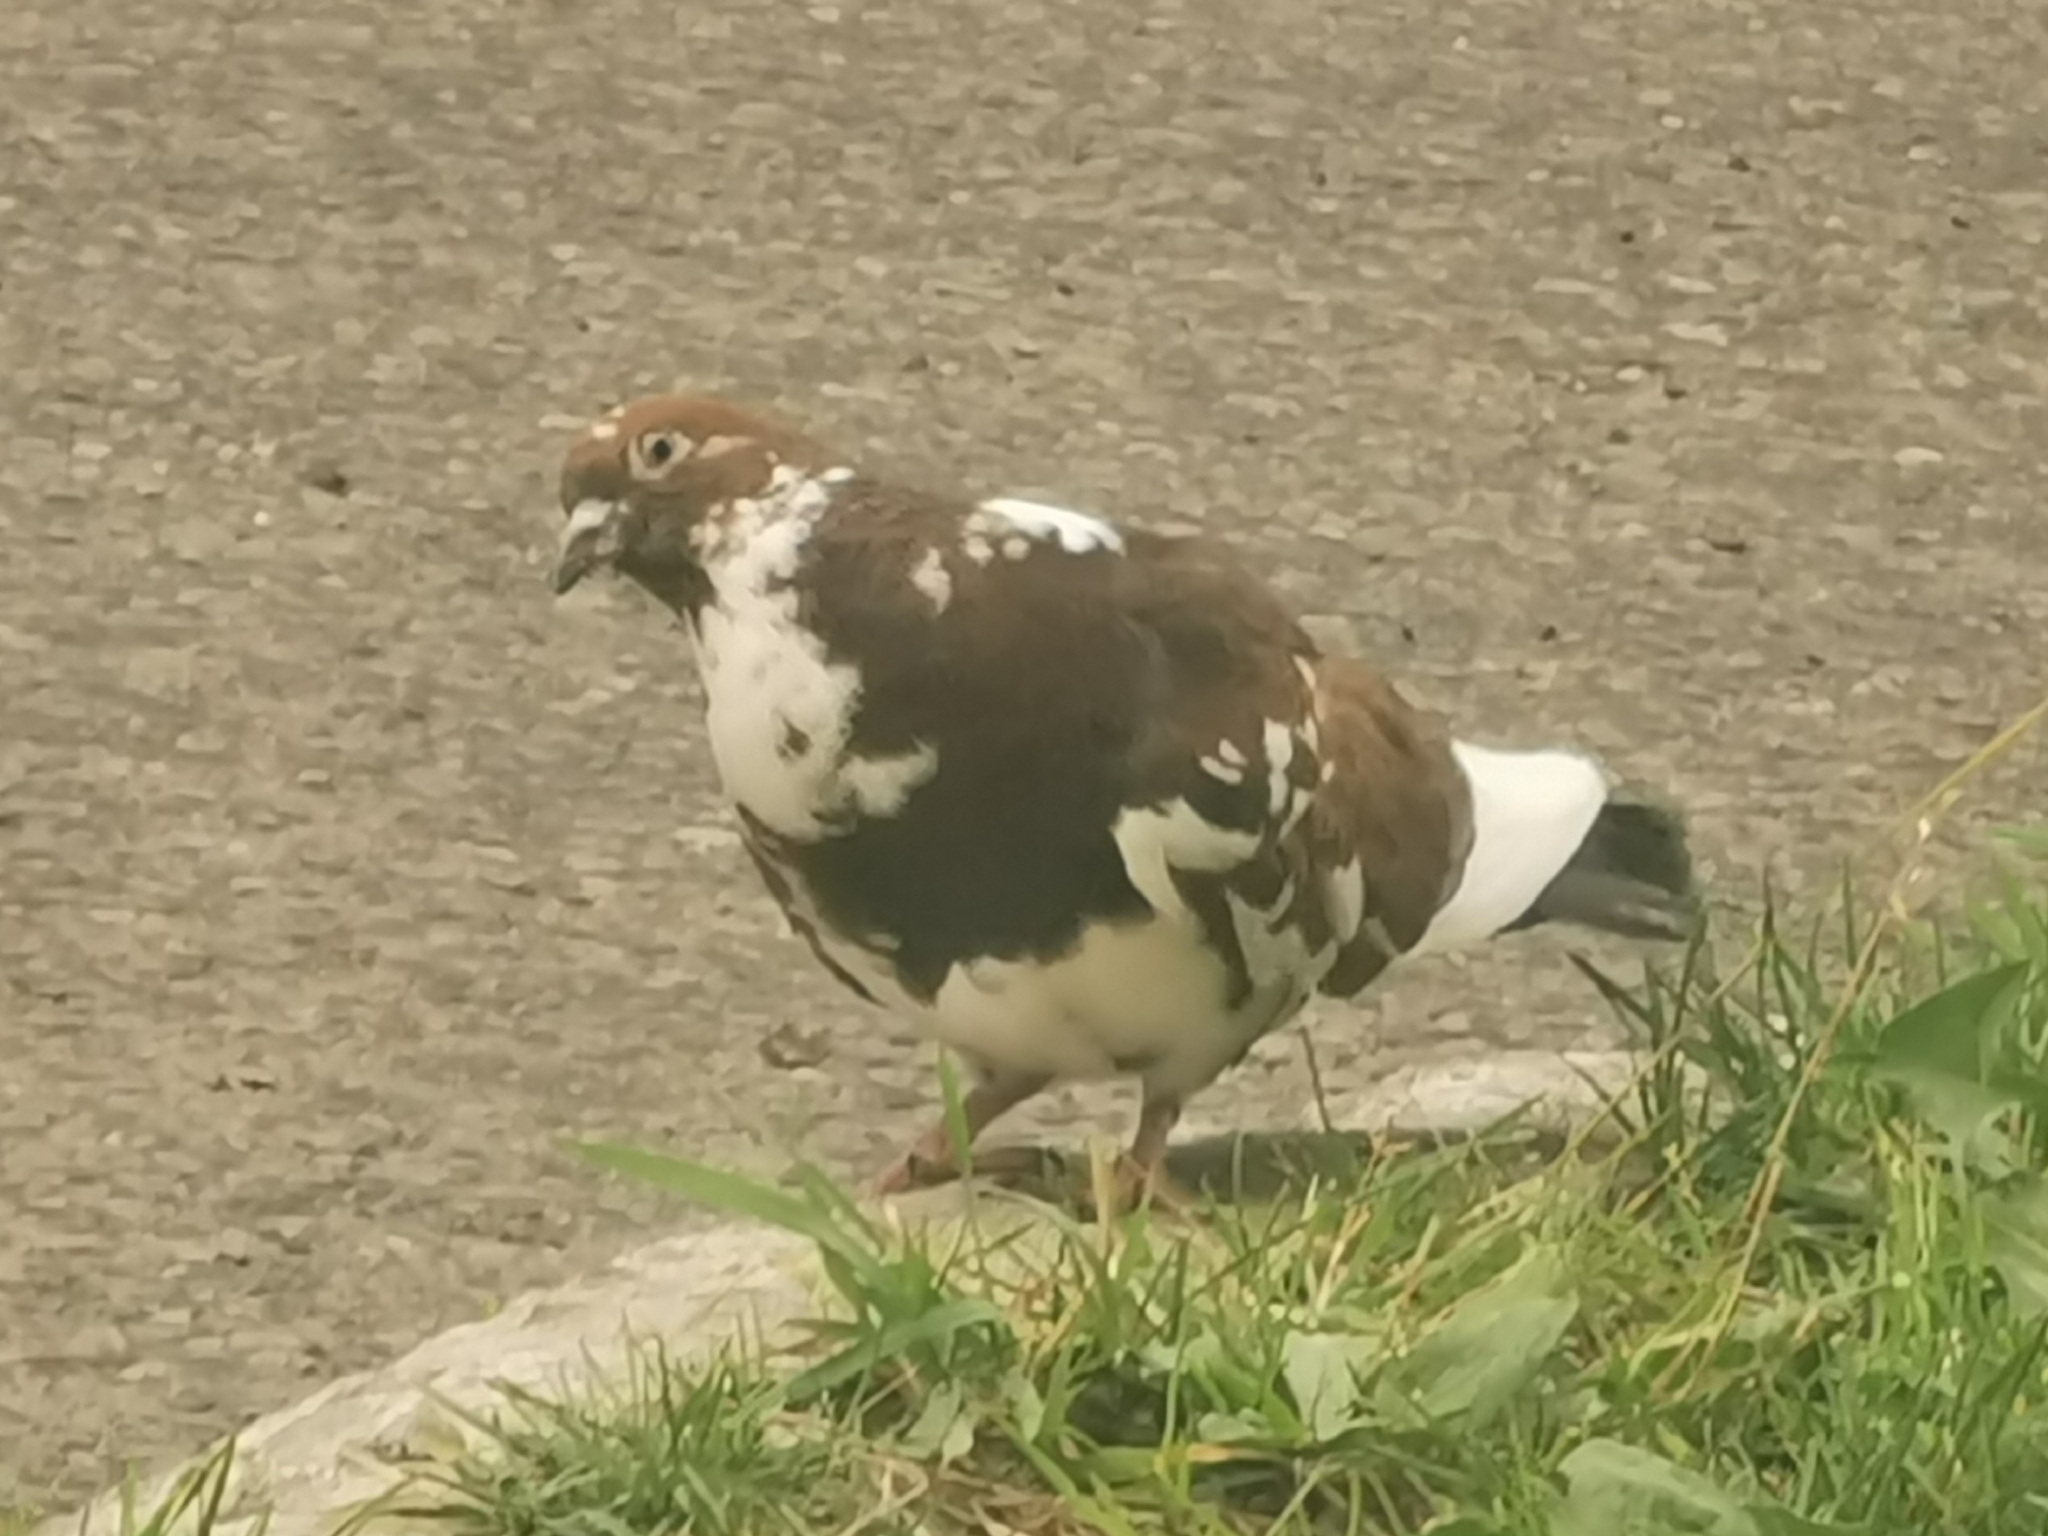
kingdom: Animalia
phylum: Chordata
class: Aves
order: Columbiformes
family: Columbidae
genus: Columba
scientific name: Columba livia
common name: Rock pigeon
